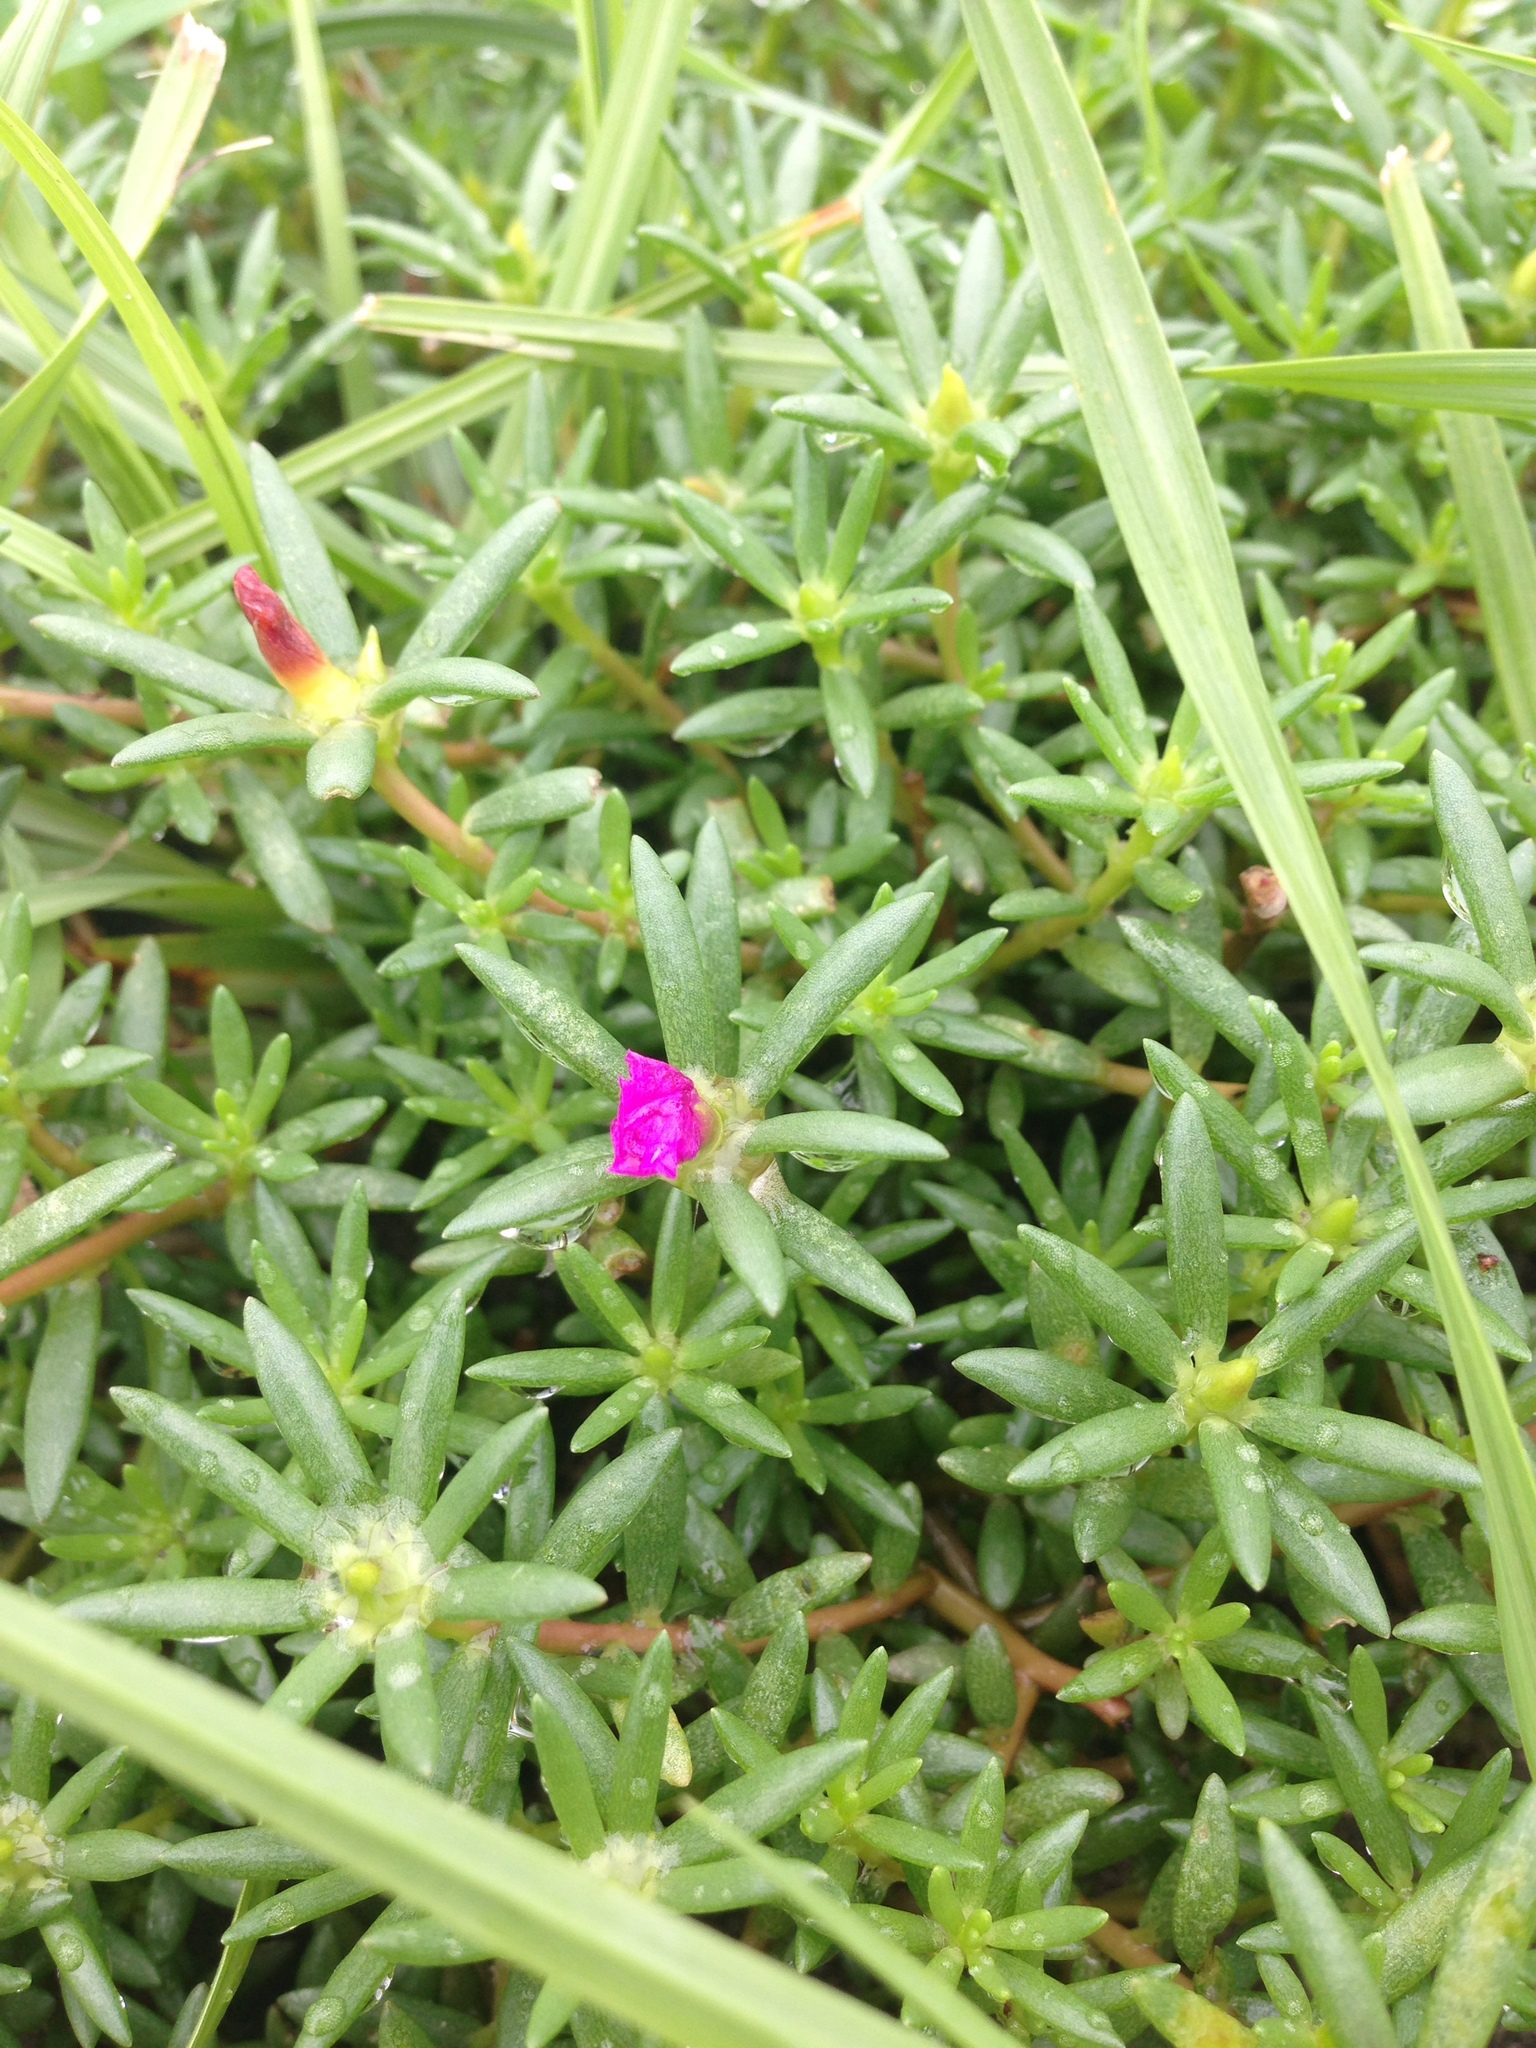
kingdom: Plantae
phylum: Tracheophyta
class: Magnoliopsida
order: Caryophyllales
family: Portulacaceae
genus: Portulaca
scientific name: Portulaca pilosa
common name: Kiss me quick
